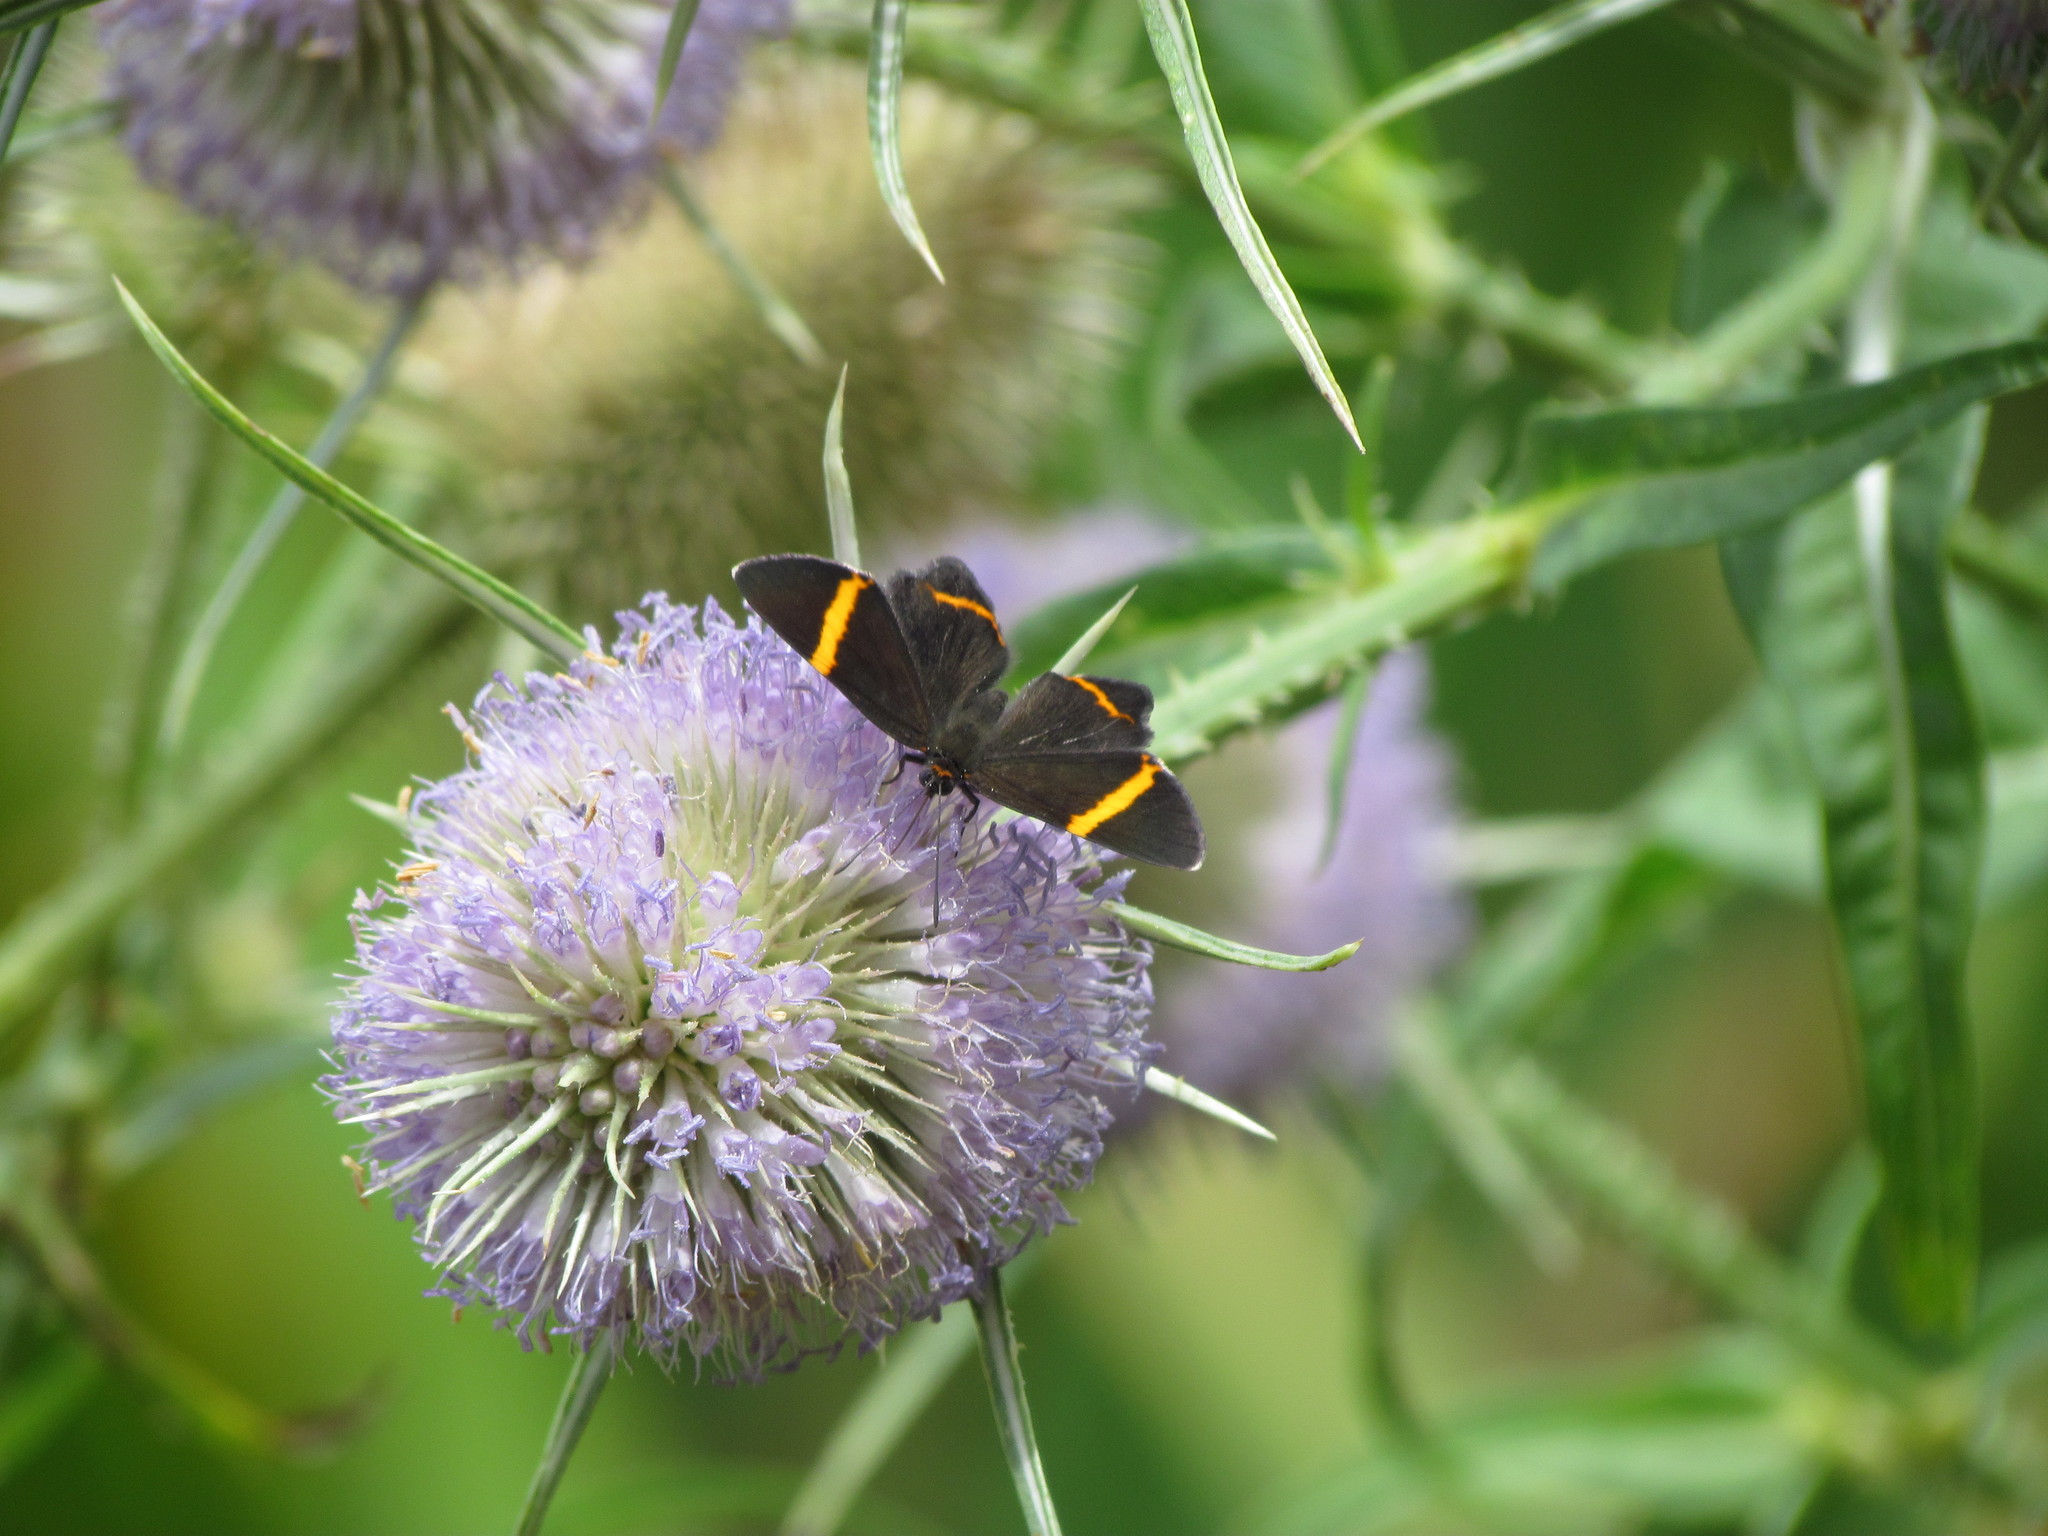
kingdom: Animalia
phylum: Arthropoda
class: Insecta
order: Lepidoptera
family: Riodinidae
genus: Riodina
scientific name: Riodina lysippoides
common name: Little dancer metalmark
